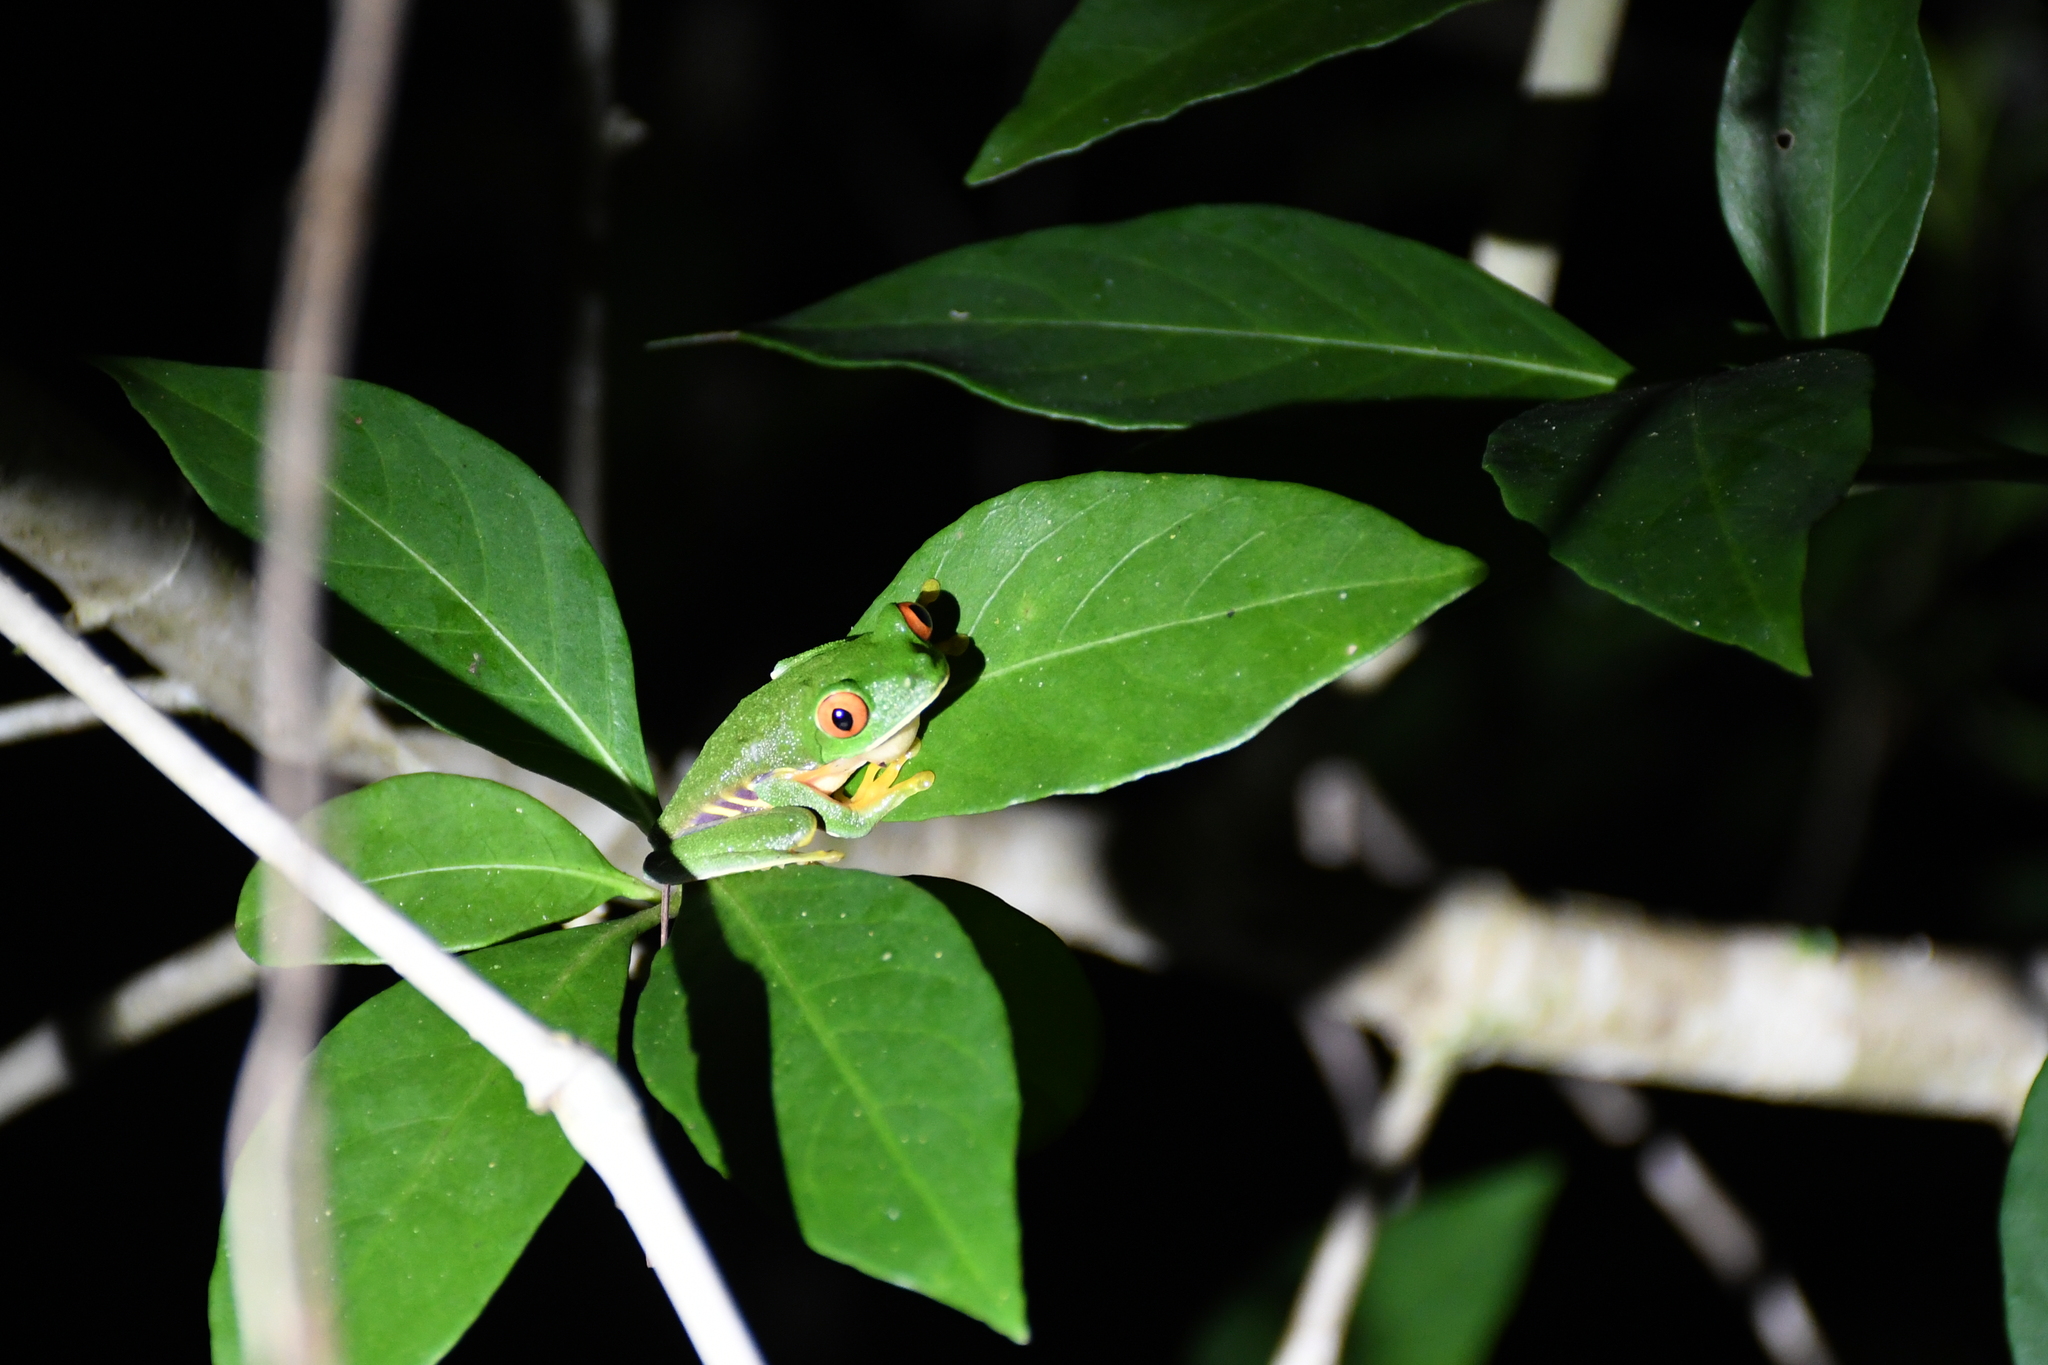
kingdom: Animalia
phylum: Chordata
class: Amphibia
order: Anura
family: Phyllomedusidae
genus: Agalychnis
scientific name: Agalychnis
